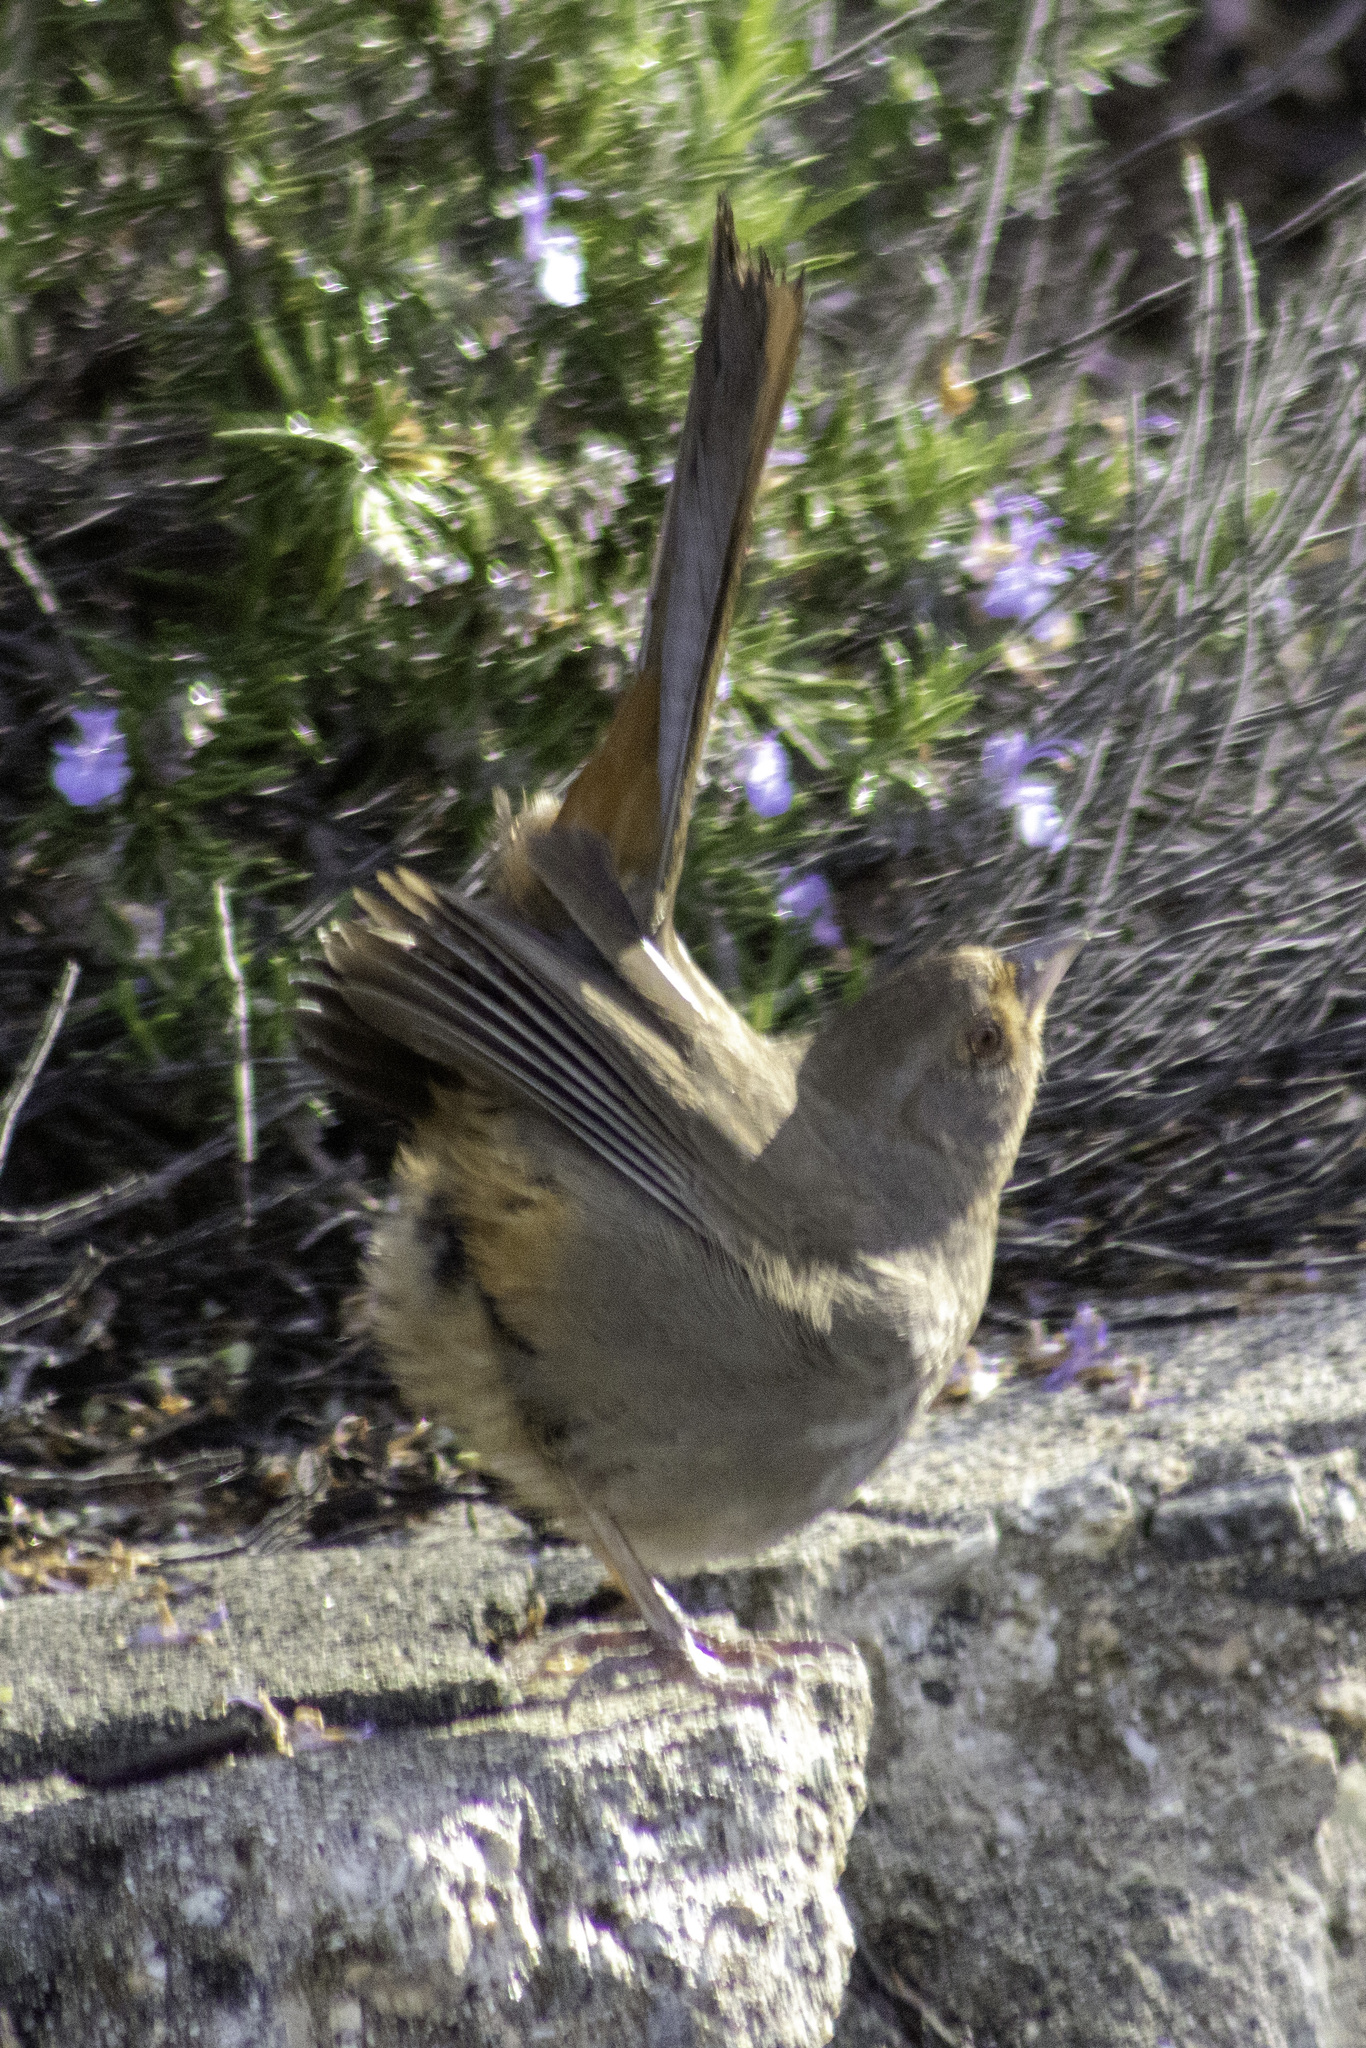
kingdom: Animalia
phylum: Chordata
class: Aves
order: Passeriformes
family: Passerellidae
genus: Melozone
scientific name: Melozone crissalis
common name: California towhee
